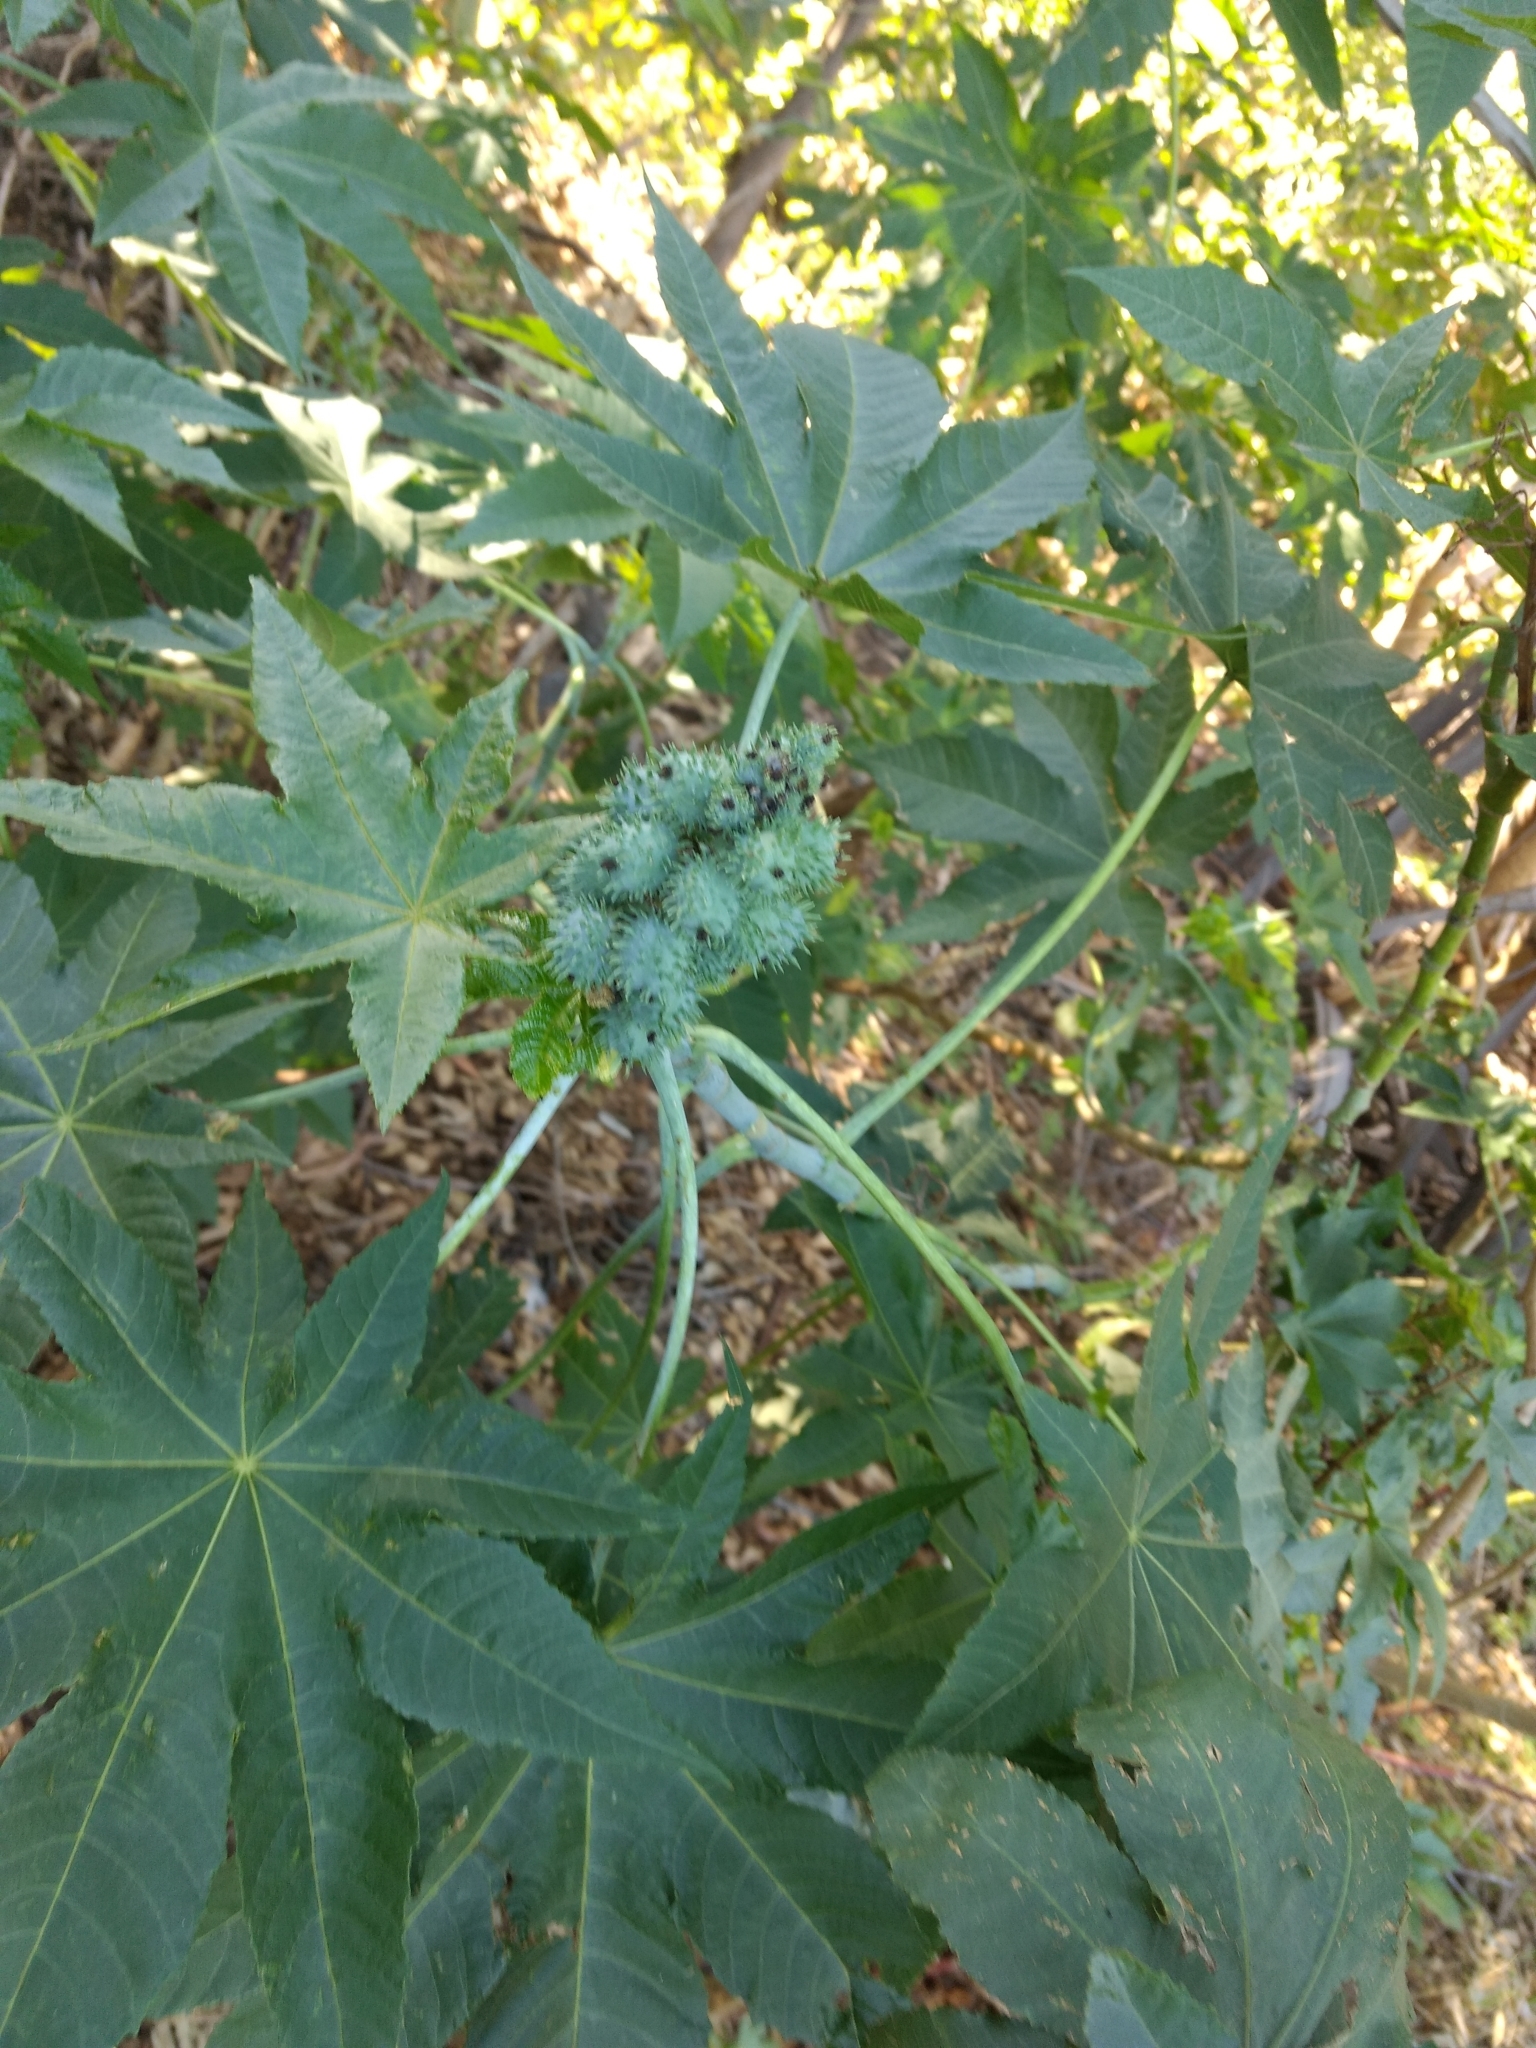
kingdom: Plantae
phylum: Tracheophyta
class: Magnoliopsida
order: Malpighiales
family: Euphorbiaceae
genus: Ricinus
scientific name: Ricinus communis
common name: Castor-oil-plant
